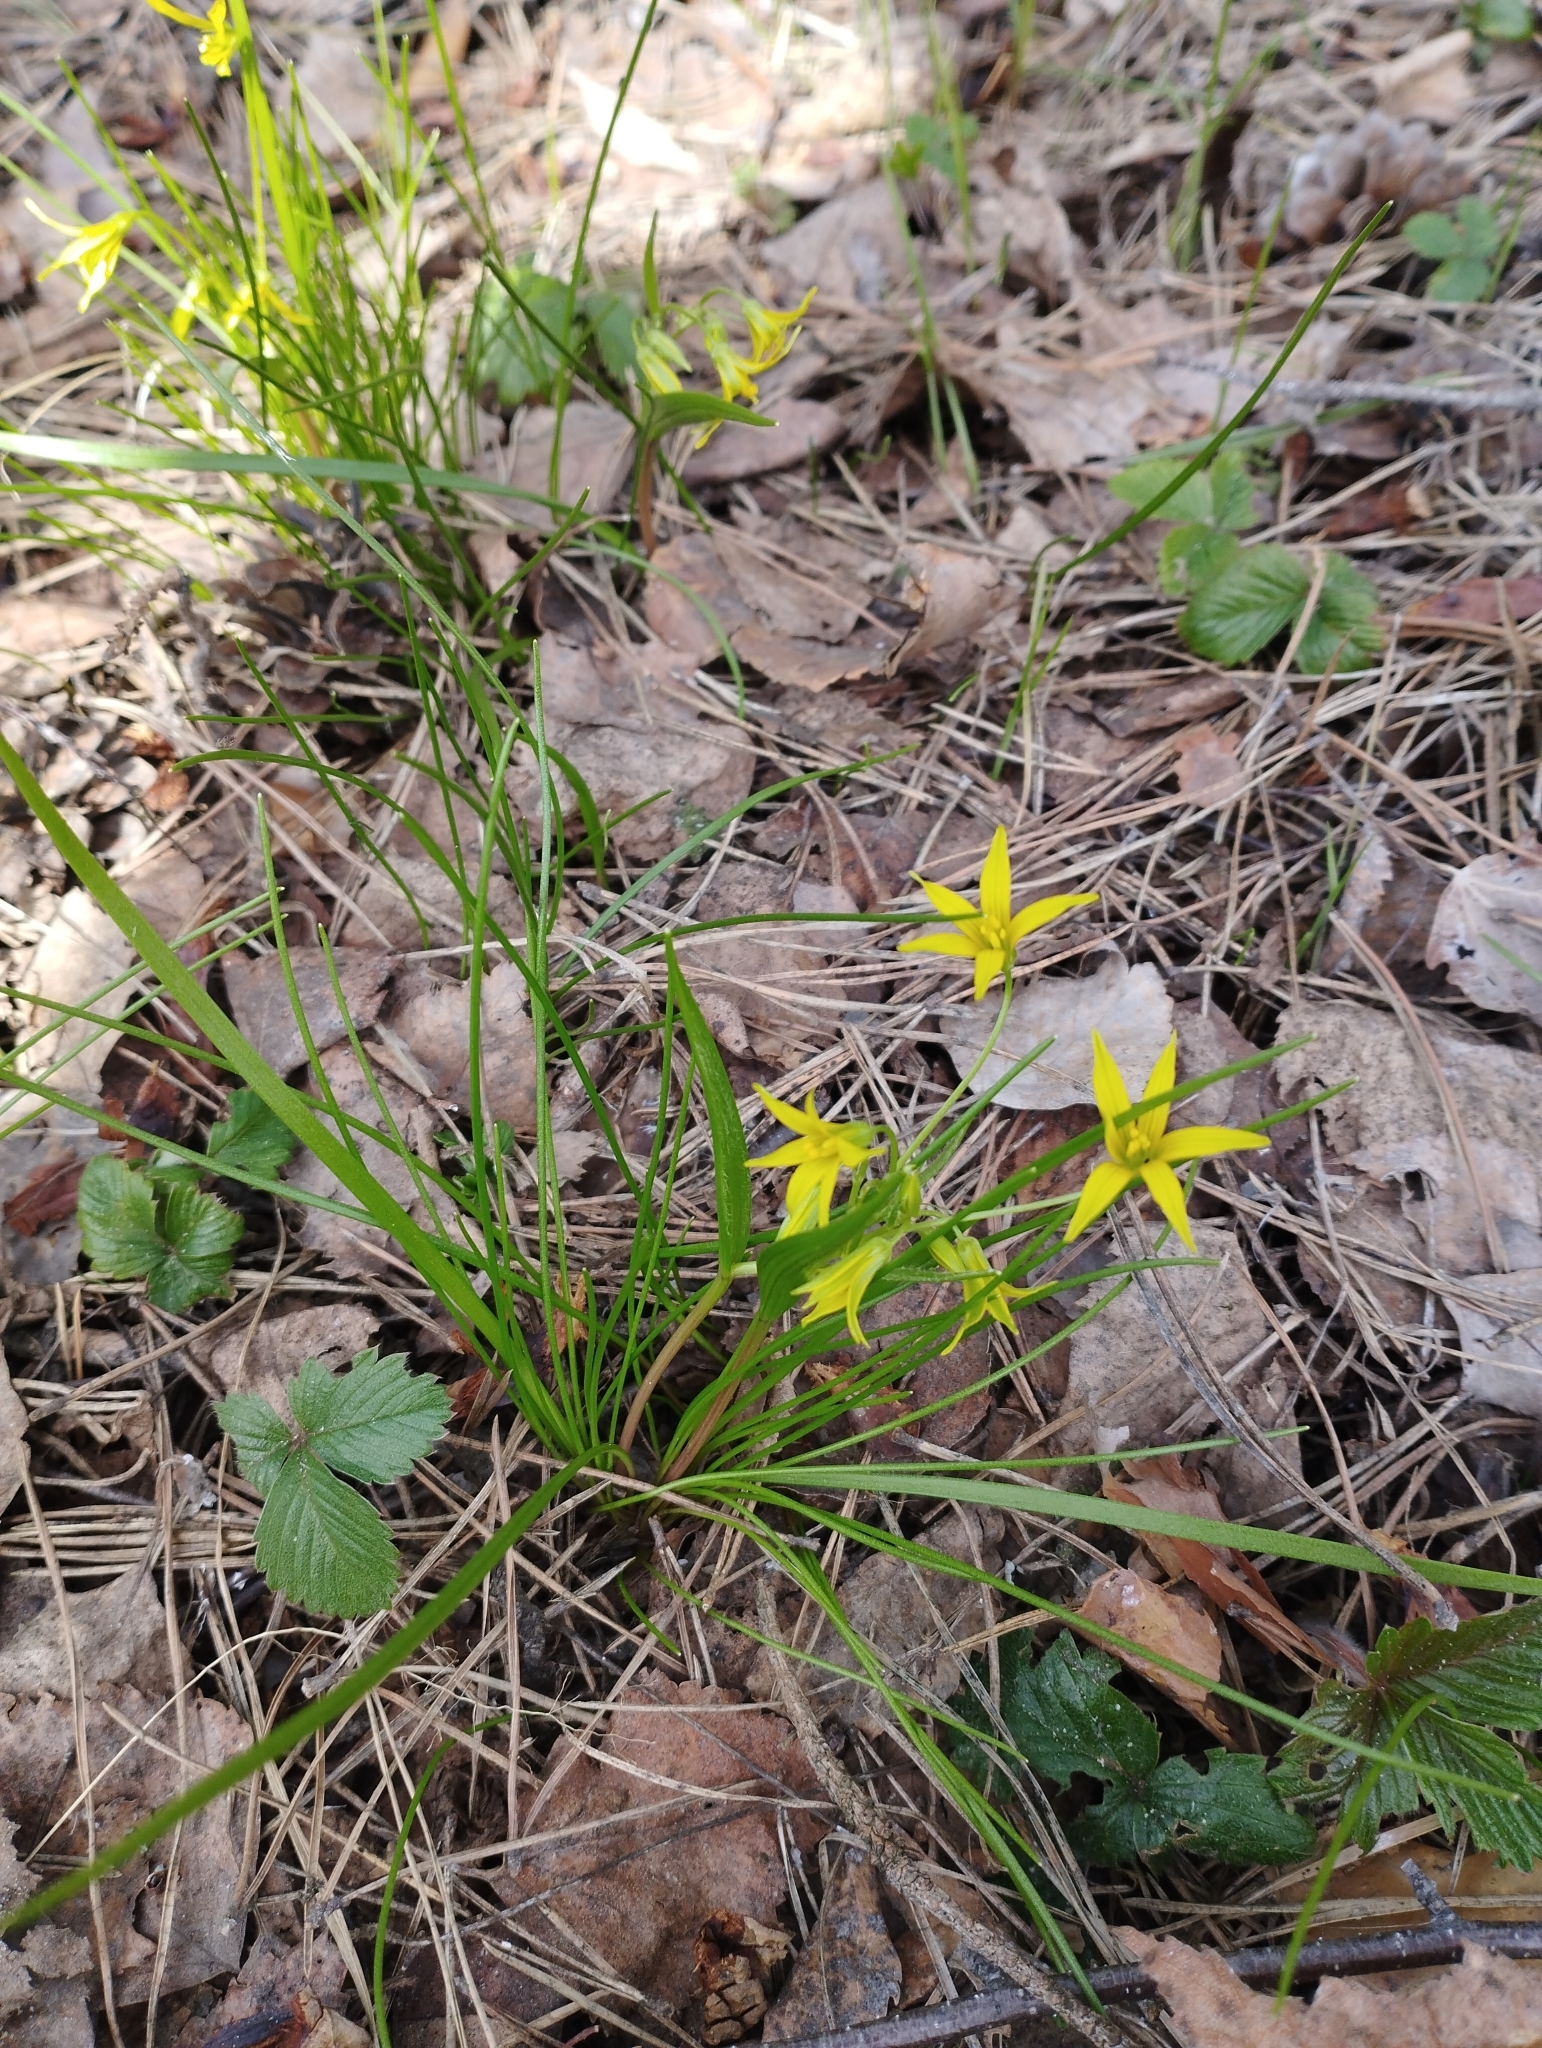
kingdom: Plantae
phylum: Tracheophyta
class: Liliopsida
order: Liliales
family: Liliaceae
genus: Gagea
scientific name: Gagea minima
